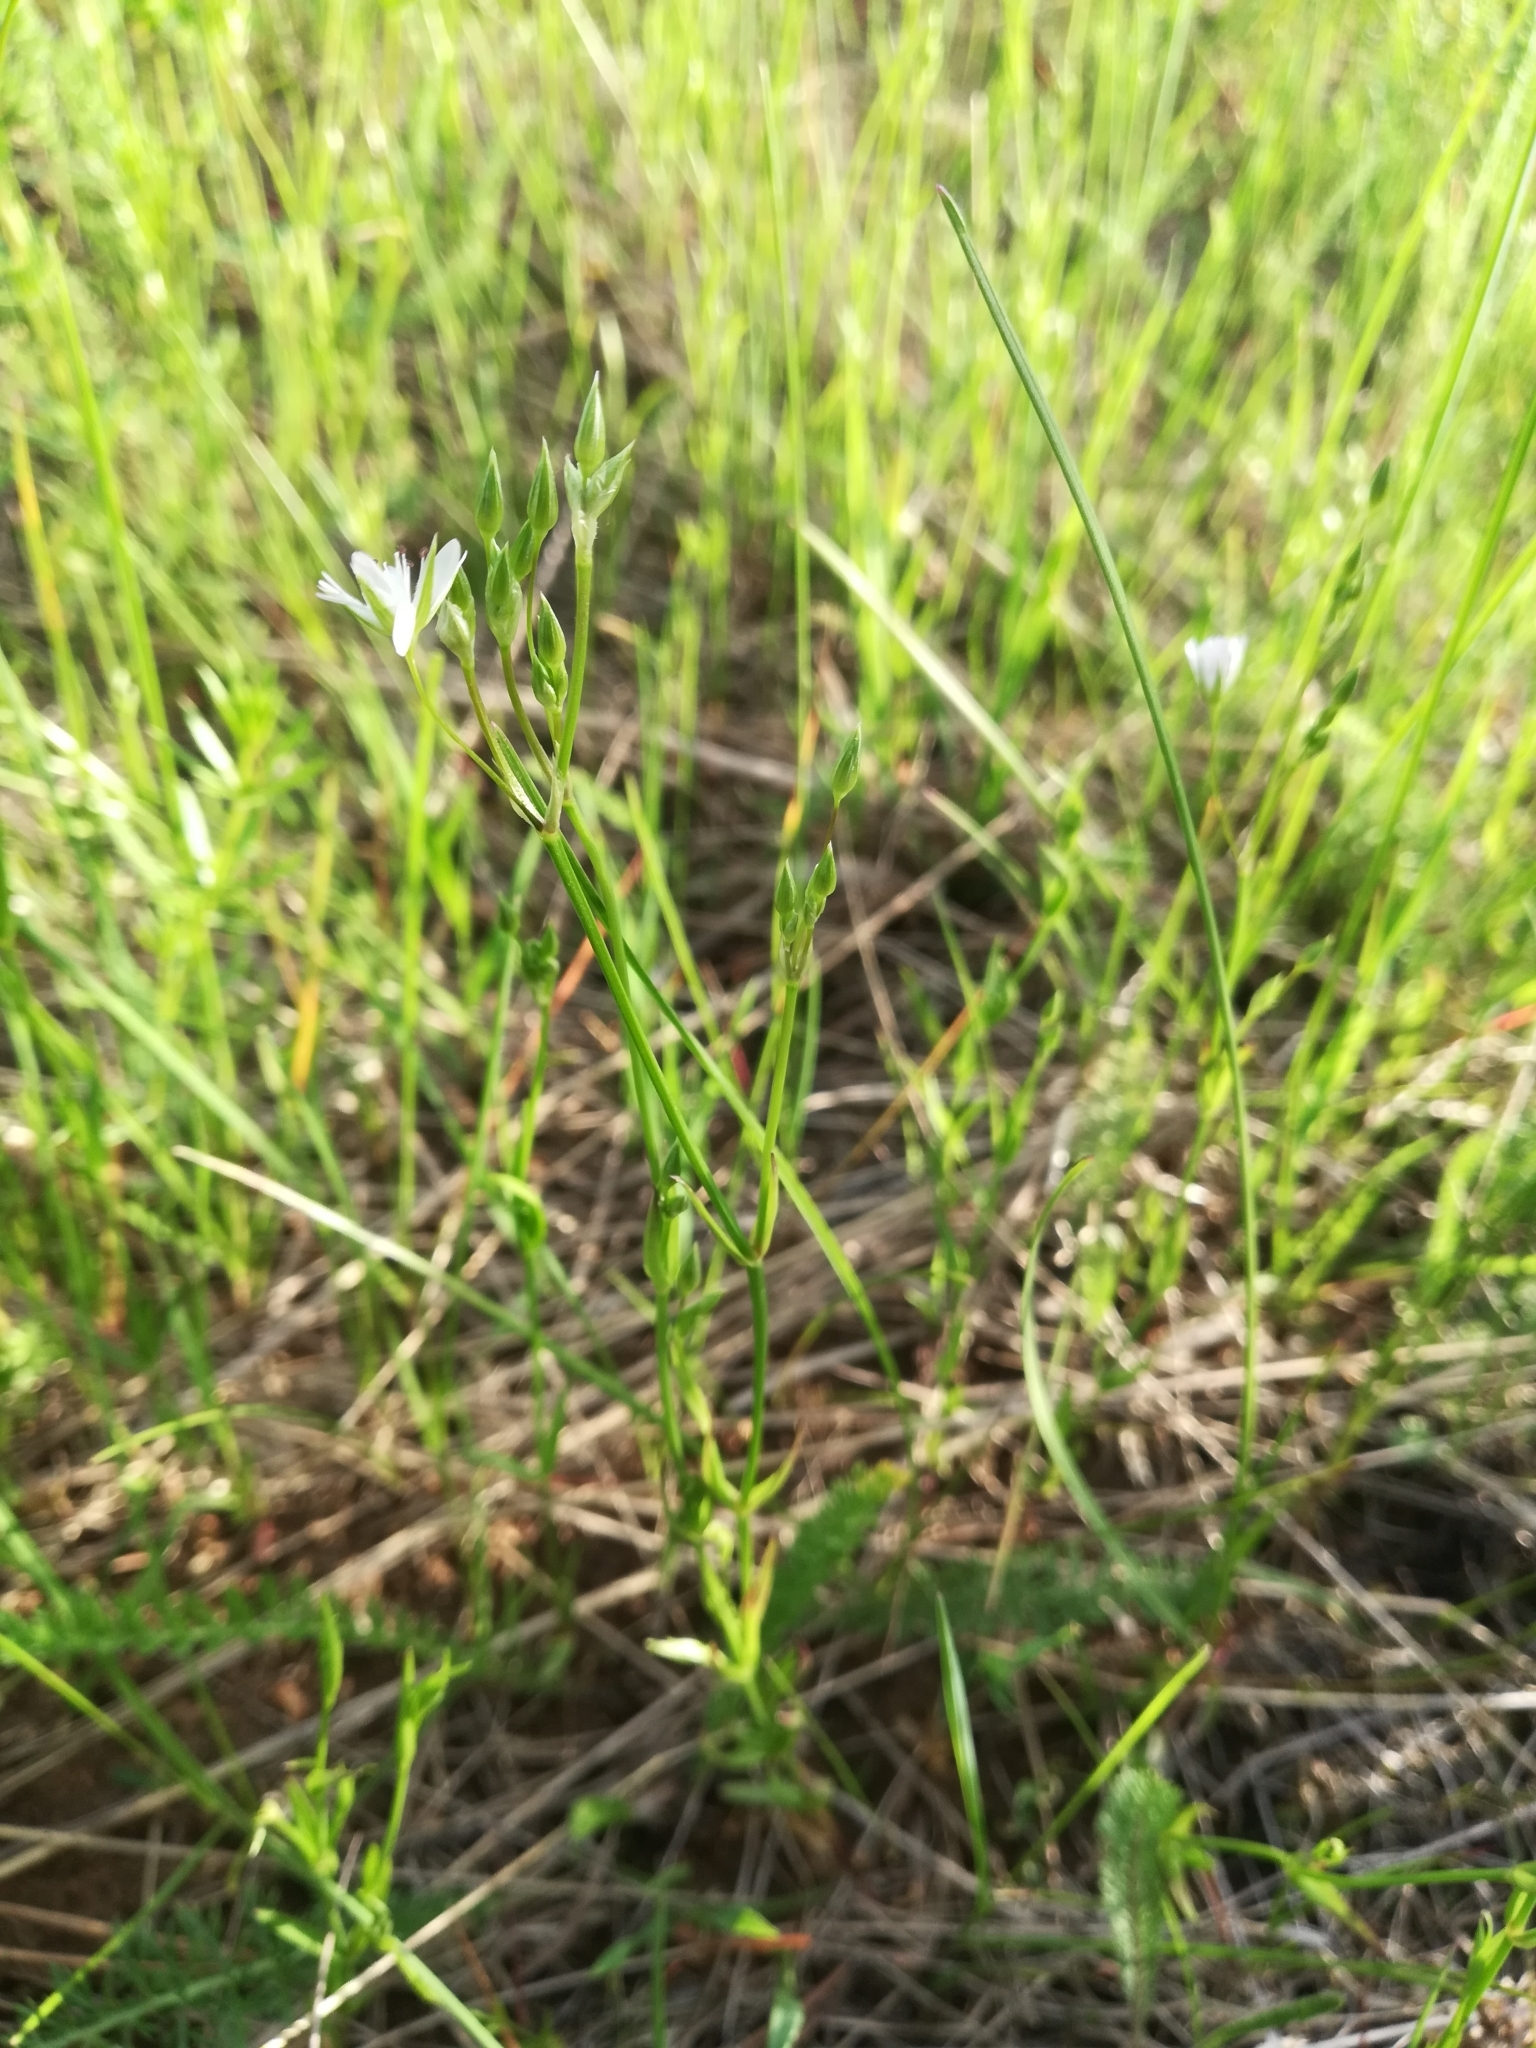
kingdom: Plantae
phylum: Tracheophyta
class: Magnoliopsida
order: Caryophyllales
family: Caryophyllaceae
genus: Stellaria
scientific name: Stellaria graminea
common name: Grass-like starwort
